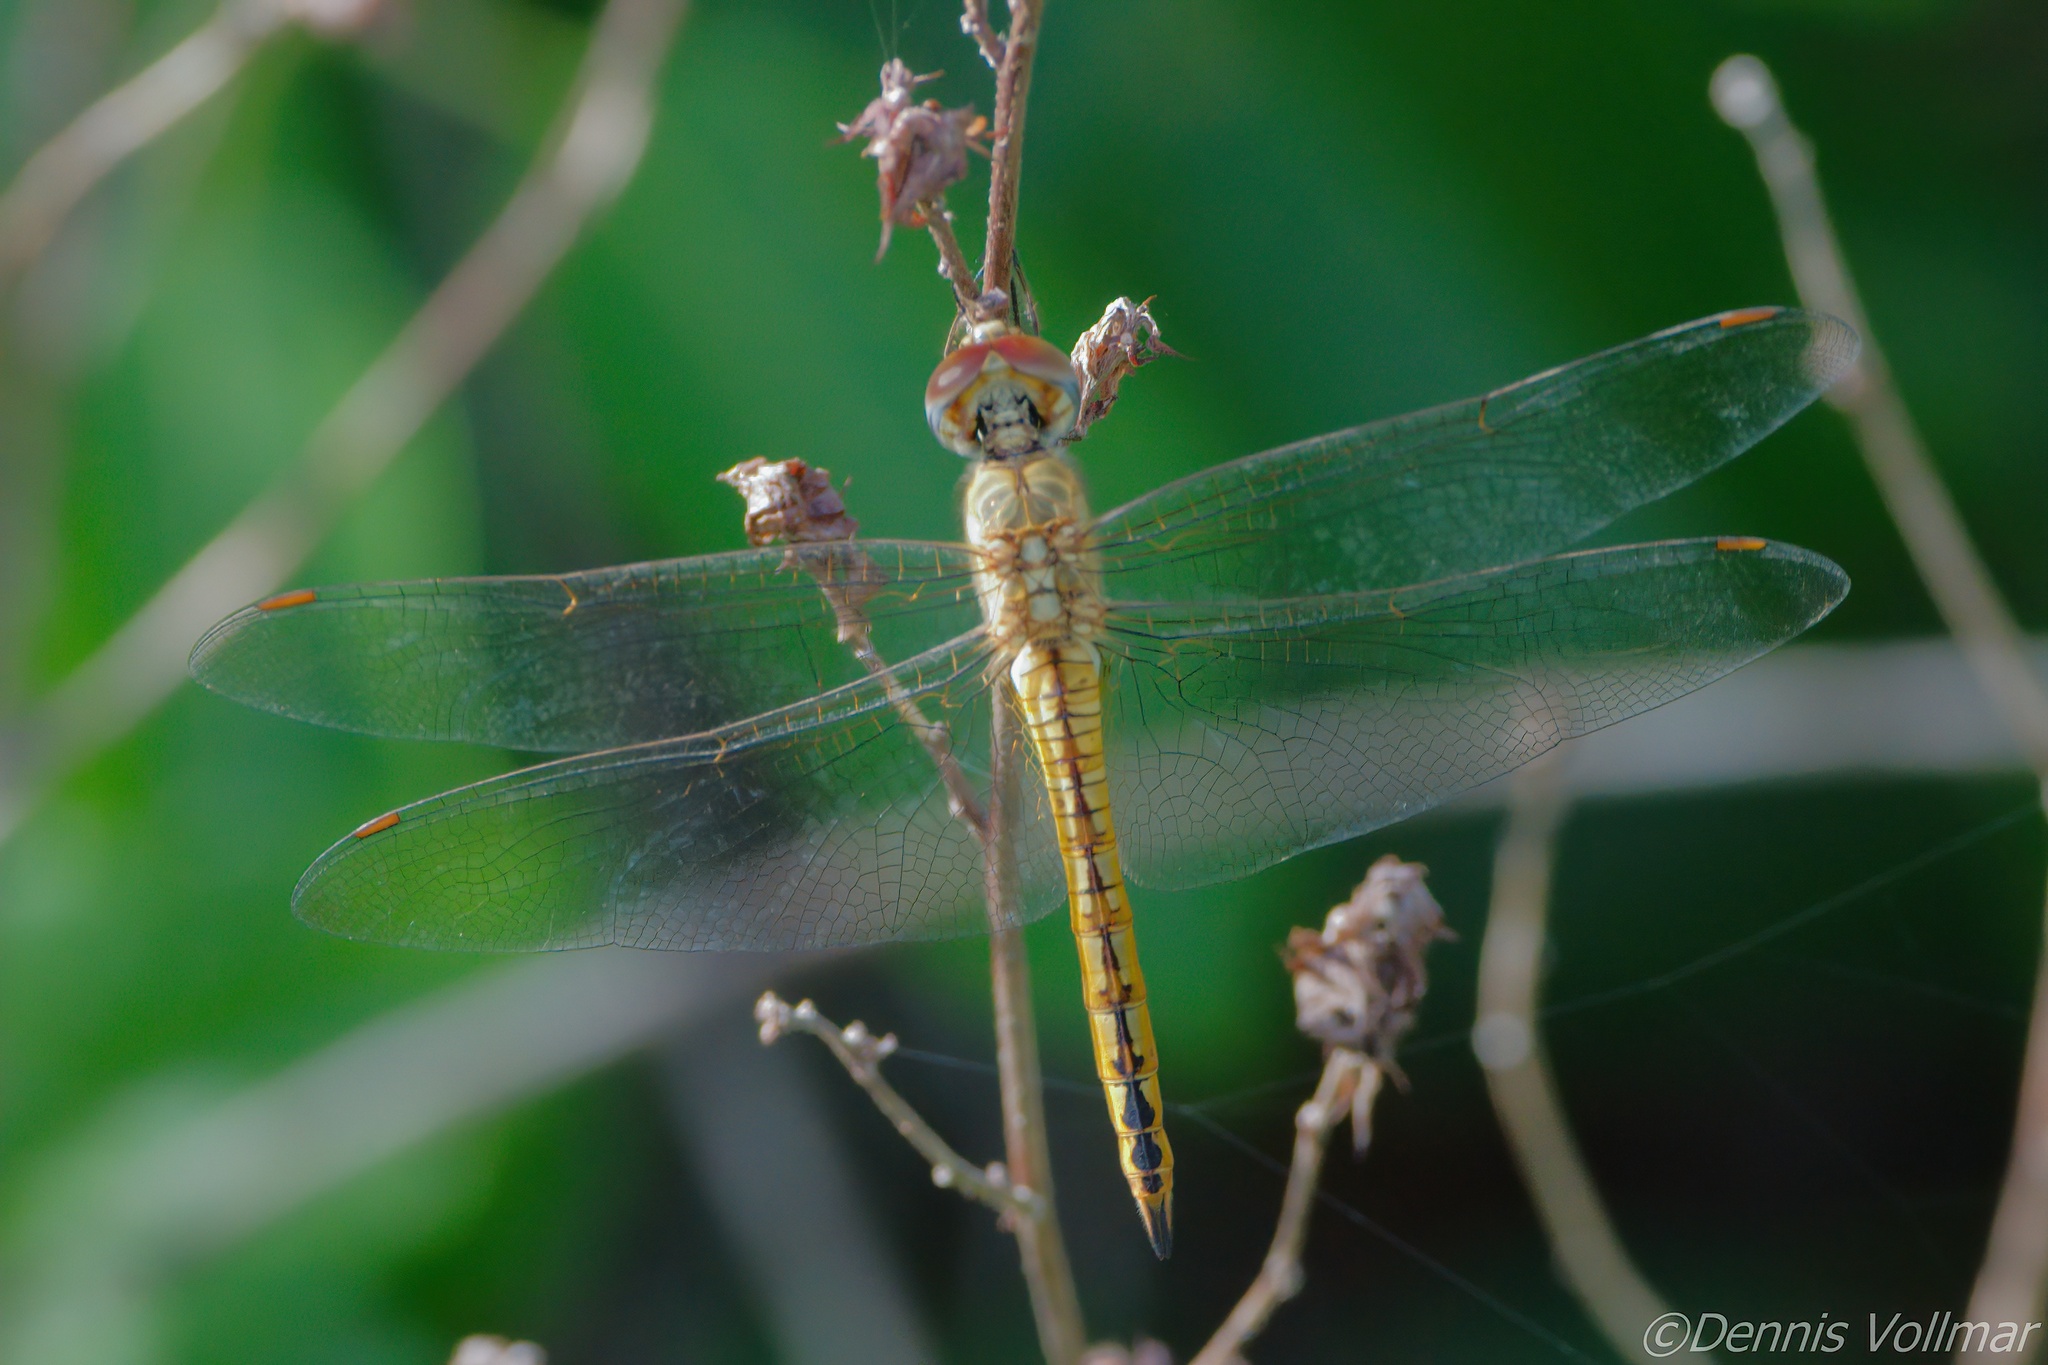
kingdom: Animalia
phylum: Arthropoda
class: Insecta
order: Odonata
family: Libellulidae
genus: Pantala
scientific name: Pantala flavescens
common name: Wandering glider
